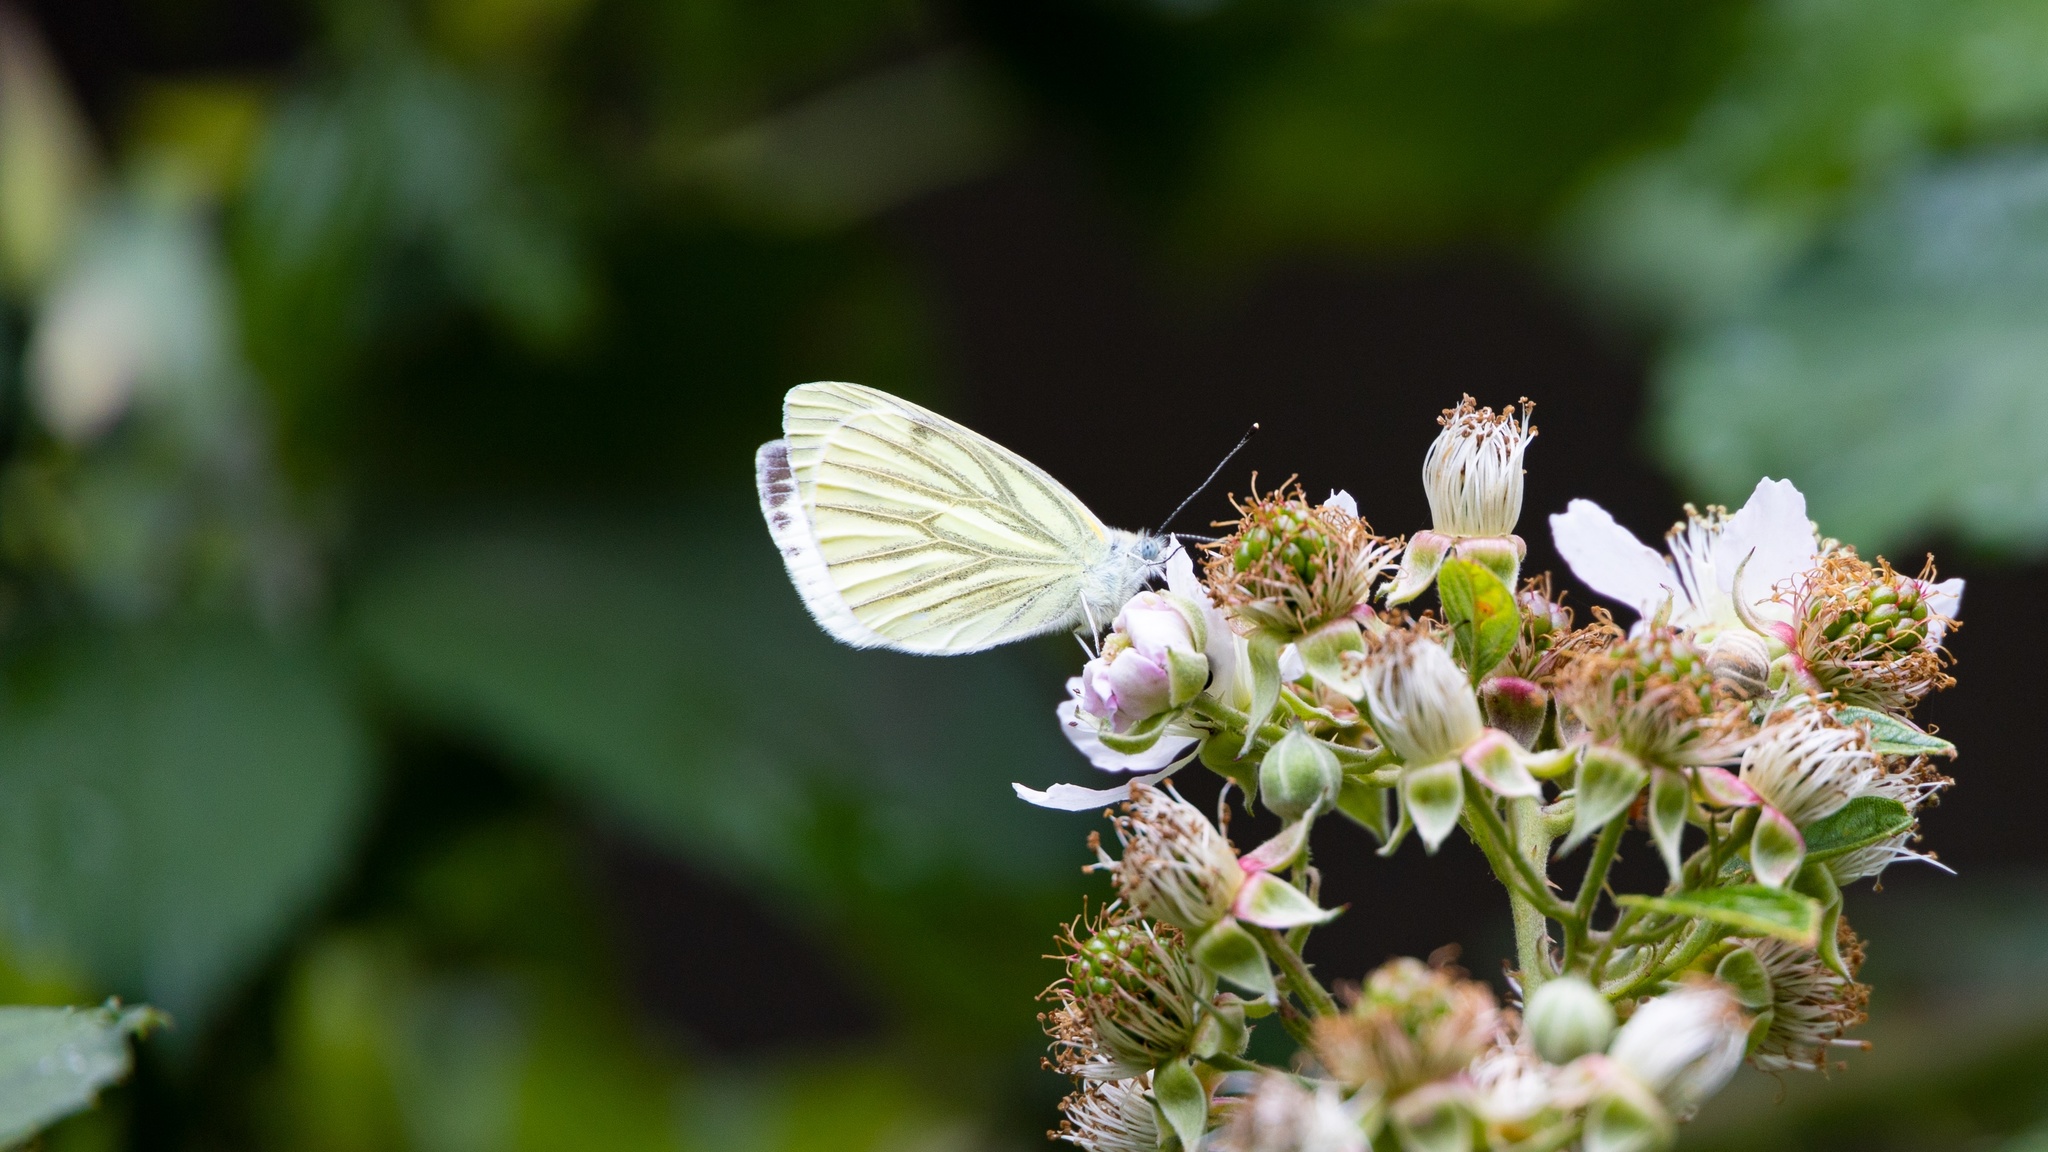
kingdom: Animalia
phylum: Arthropoda
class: Insecta
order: Lepidoptera
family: Pieridae
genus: Pieris
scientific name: Pieris napi
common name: Green-veined white
